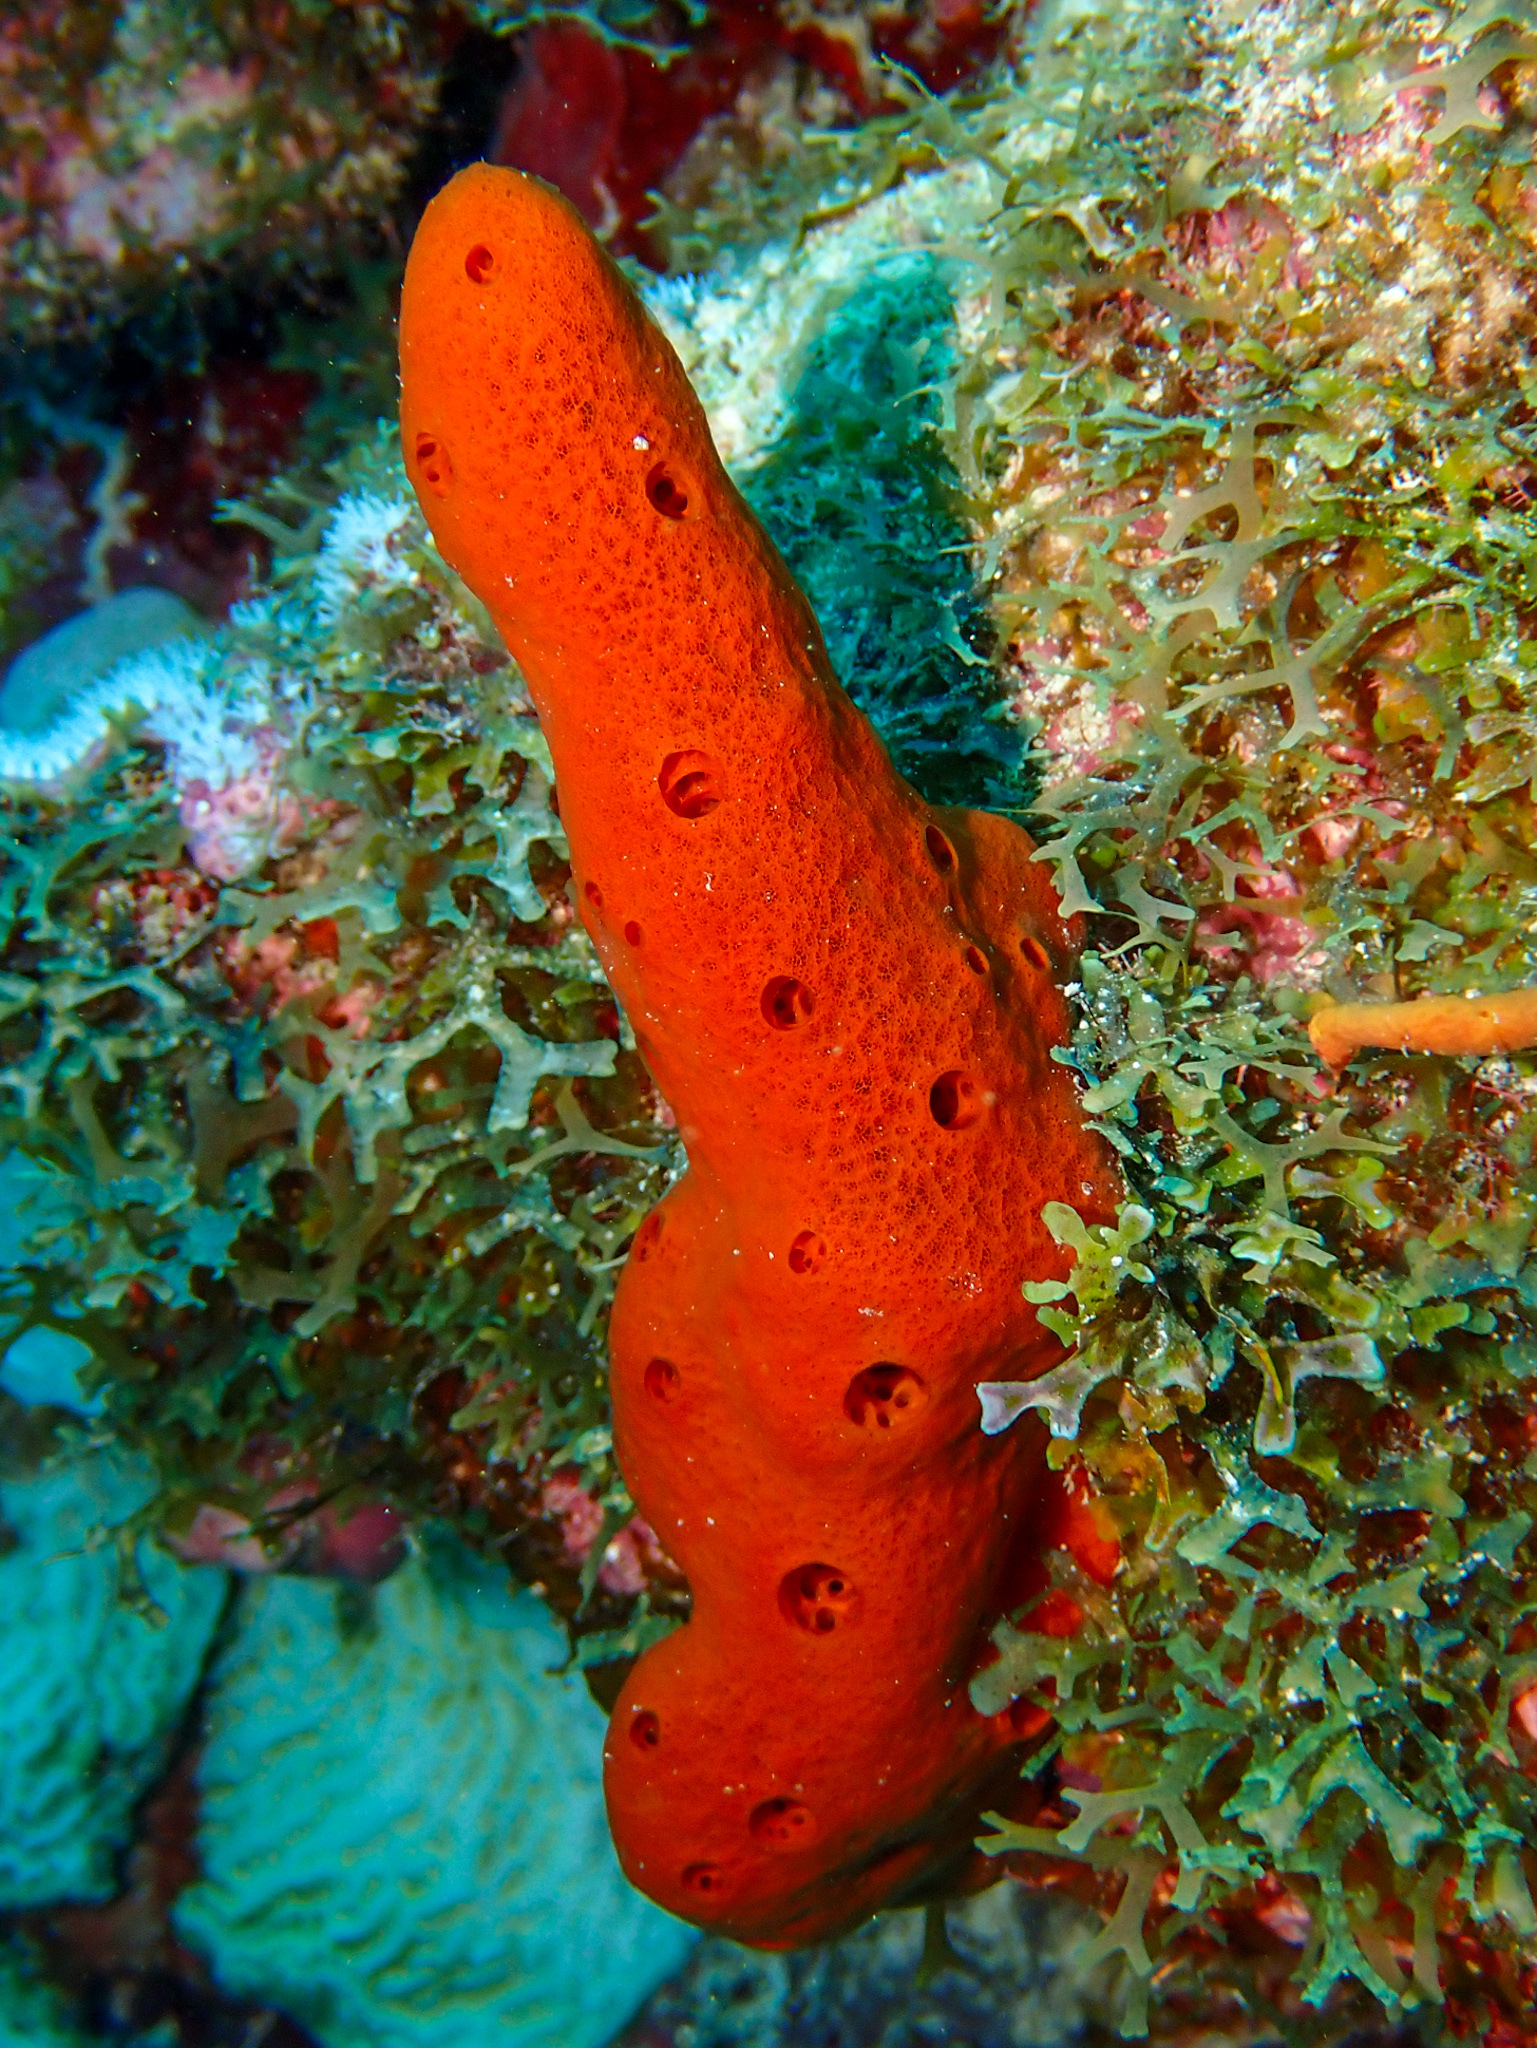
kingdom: Animalia
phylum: Porifera
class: Demospongiae
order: Haplosclerida
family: Niphatidae
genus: Amphimedon
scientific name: Amphimedon compressa
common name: Red sponge
